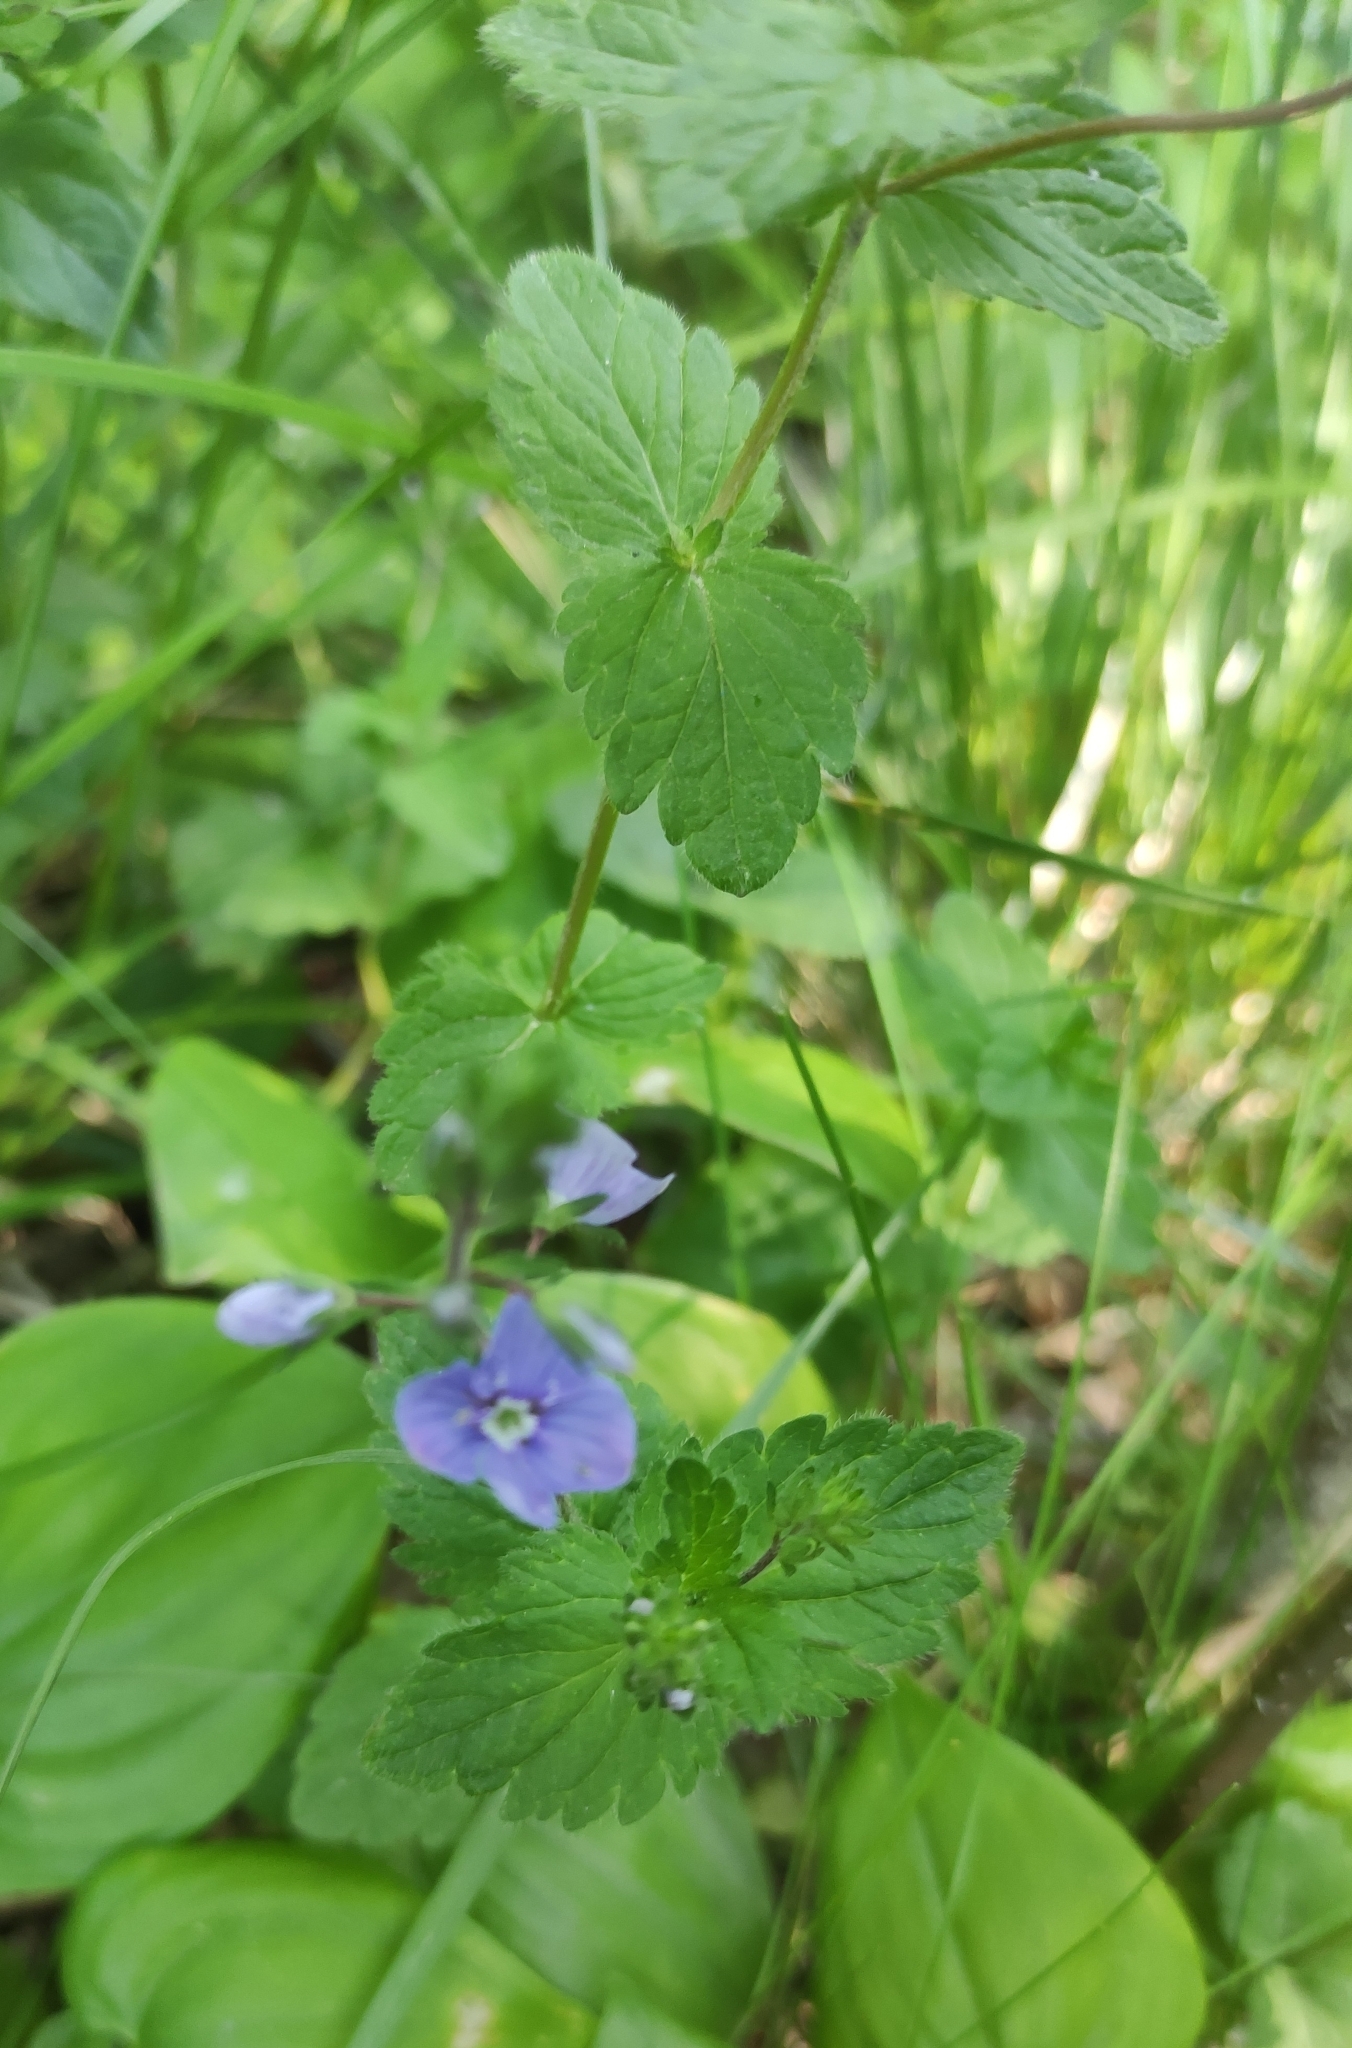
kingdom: Plantae
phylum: Tracheophyta
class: Magnoliopsida
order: Lamiales
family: Plantaginaceae
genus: Veronica
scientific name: Veronica chamaedrys
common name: Germander speedwell
